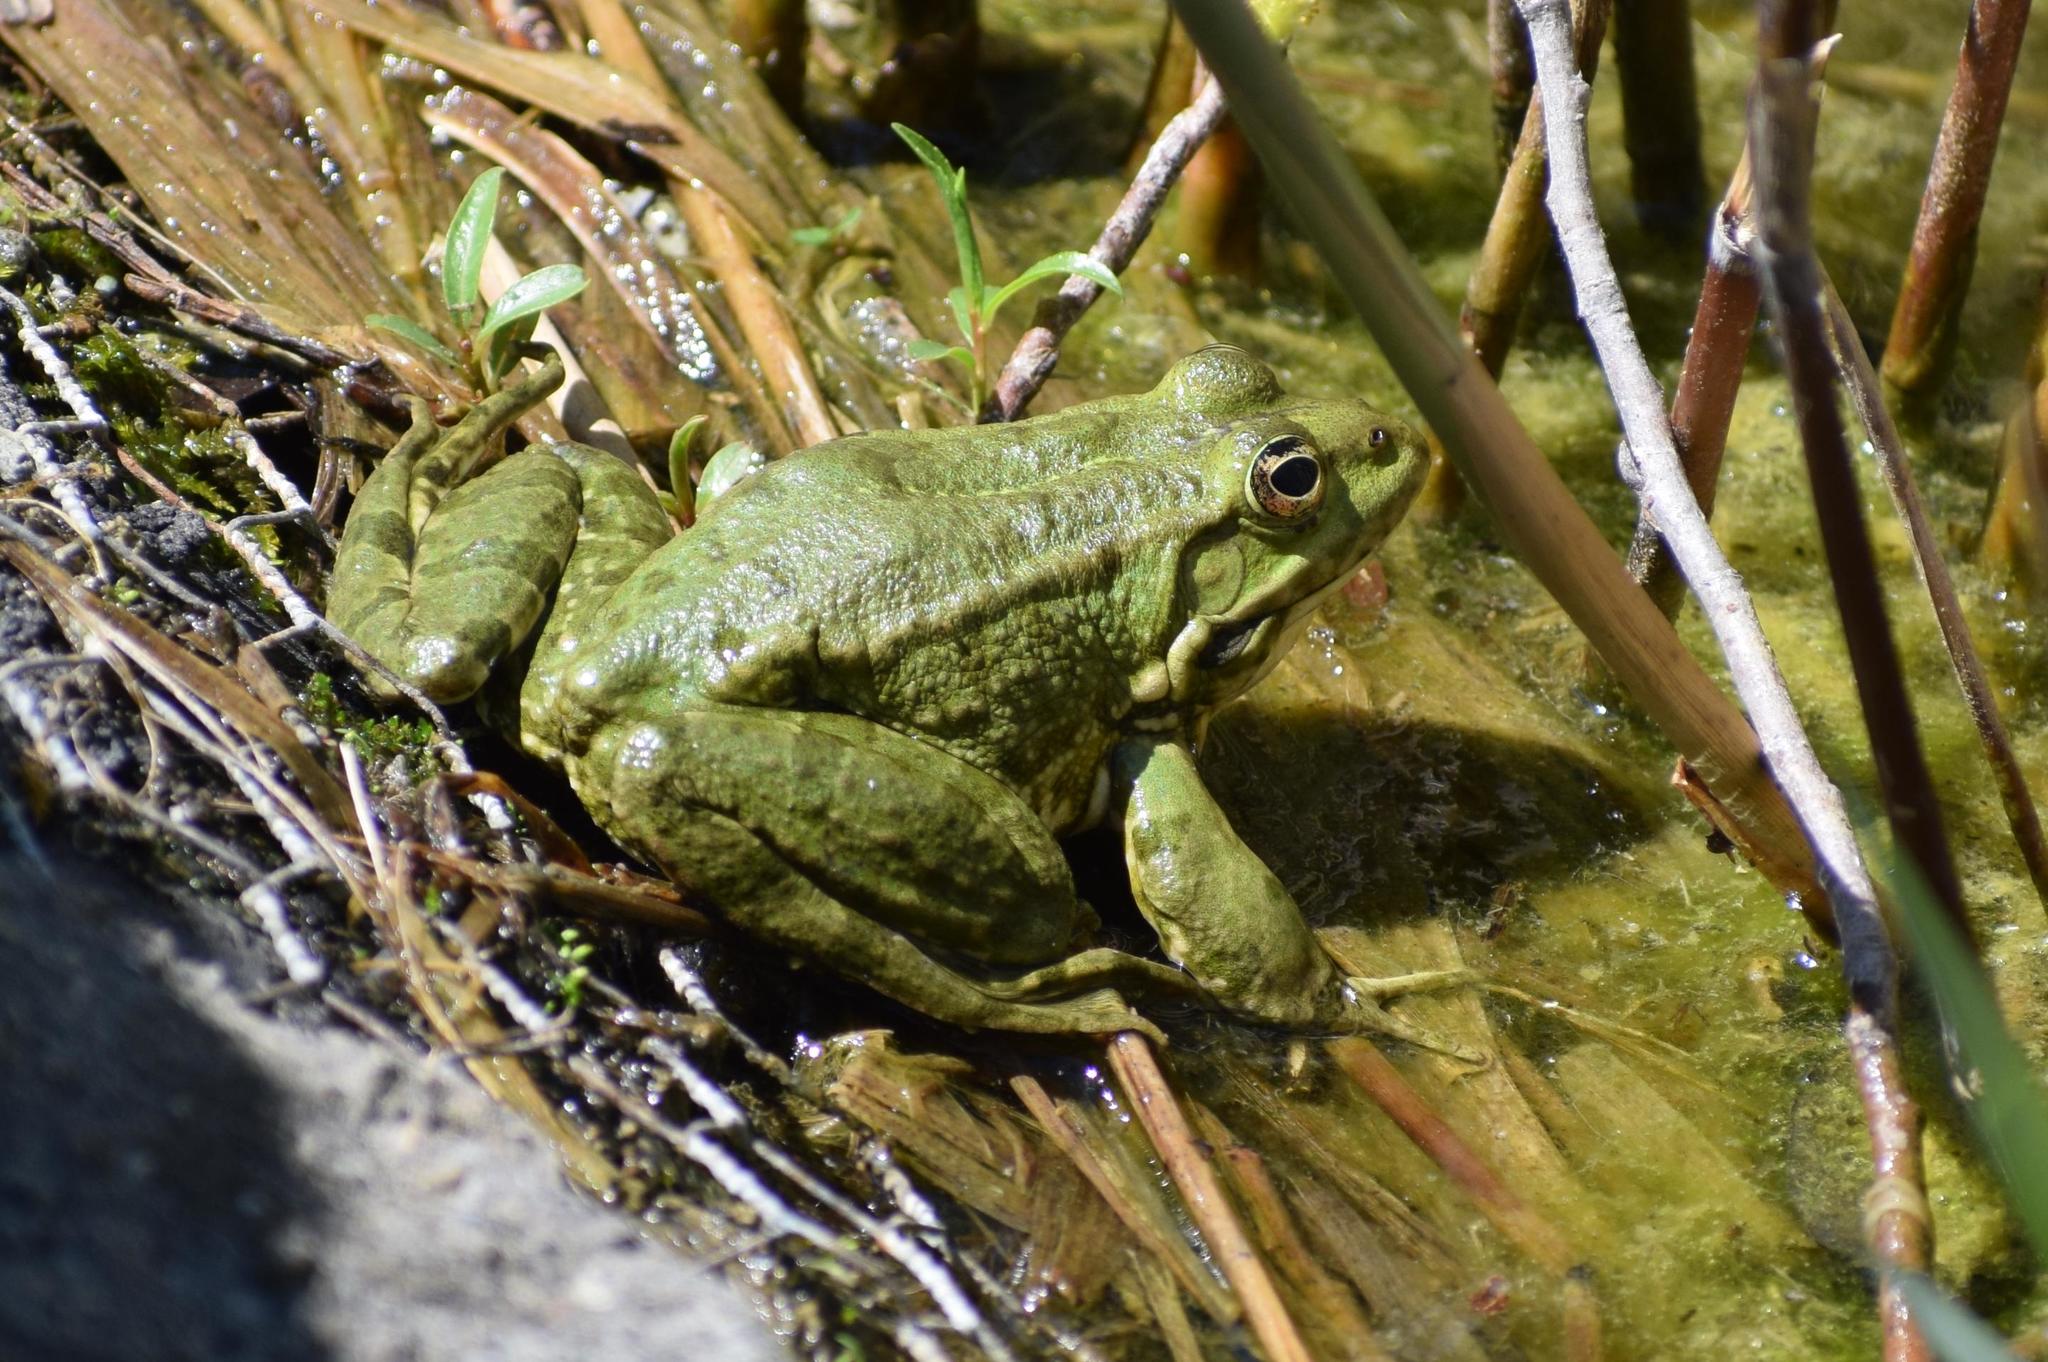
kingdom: Animalia
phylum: Chordata
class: Amphibia
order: Anura
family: Ranidae
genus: Pelophylax
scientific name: Pelophylax
